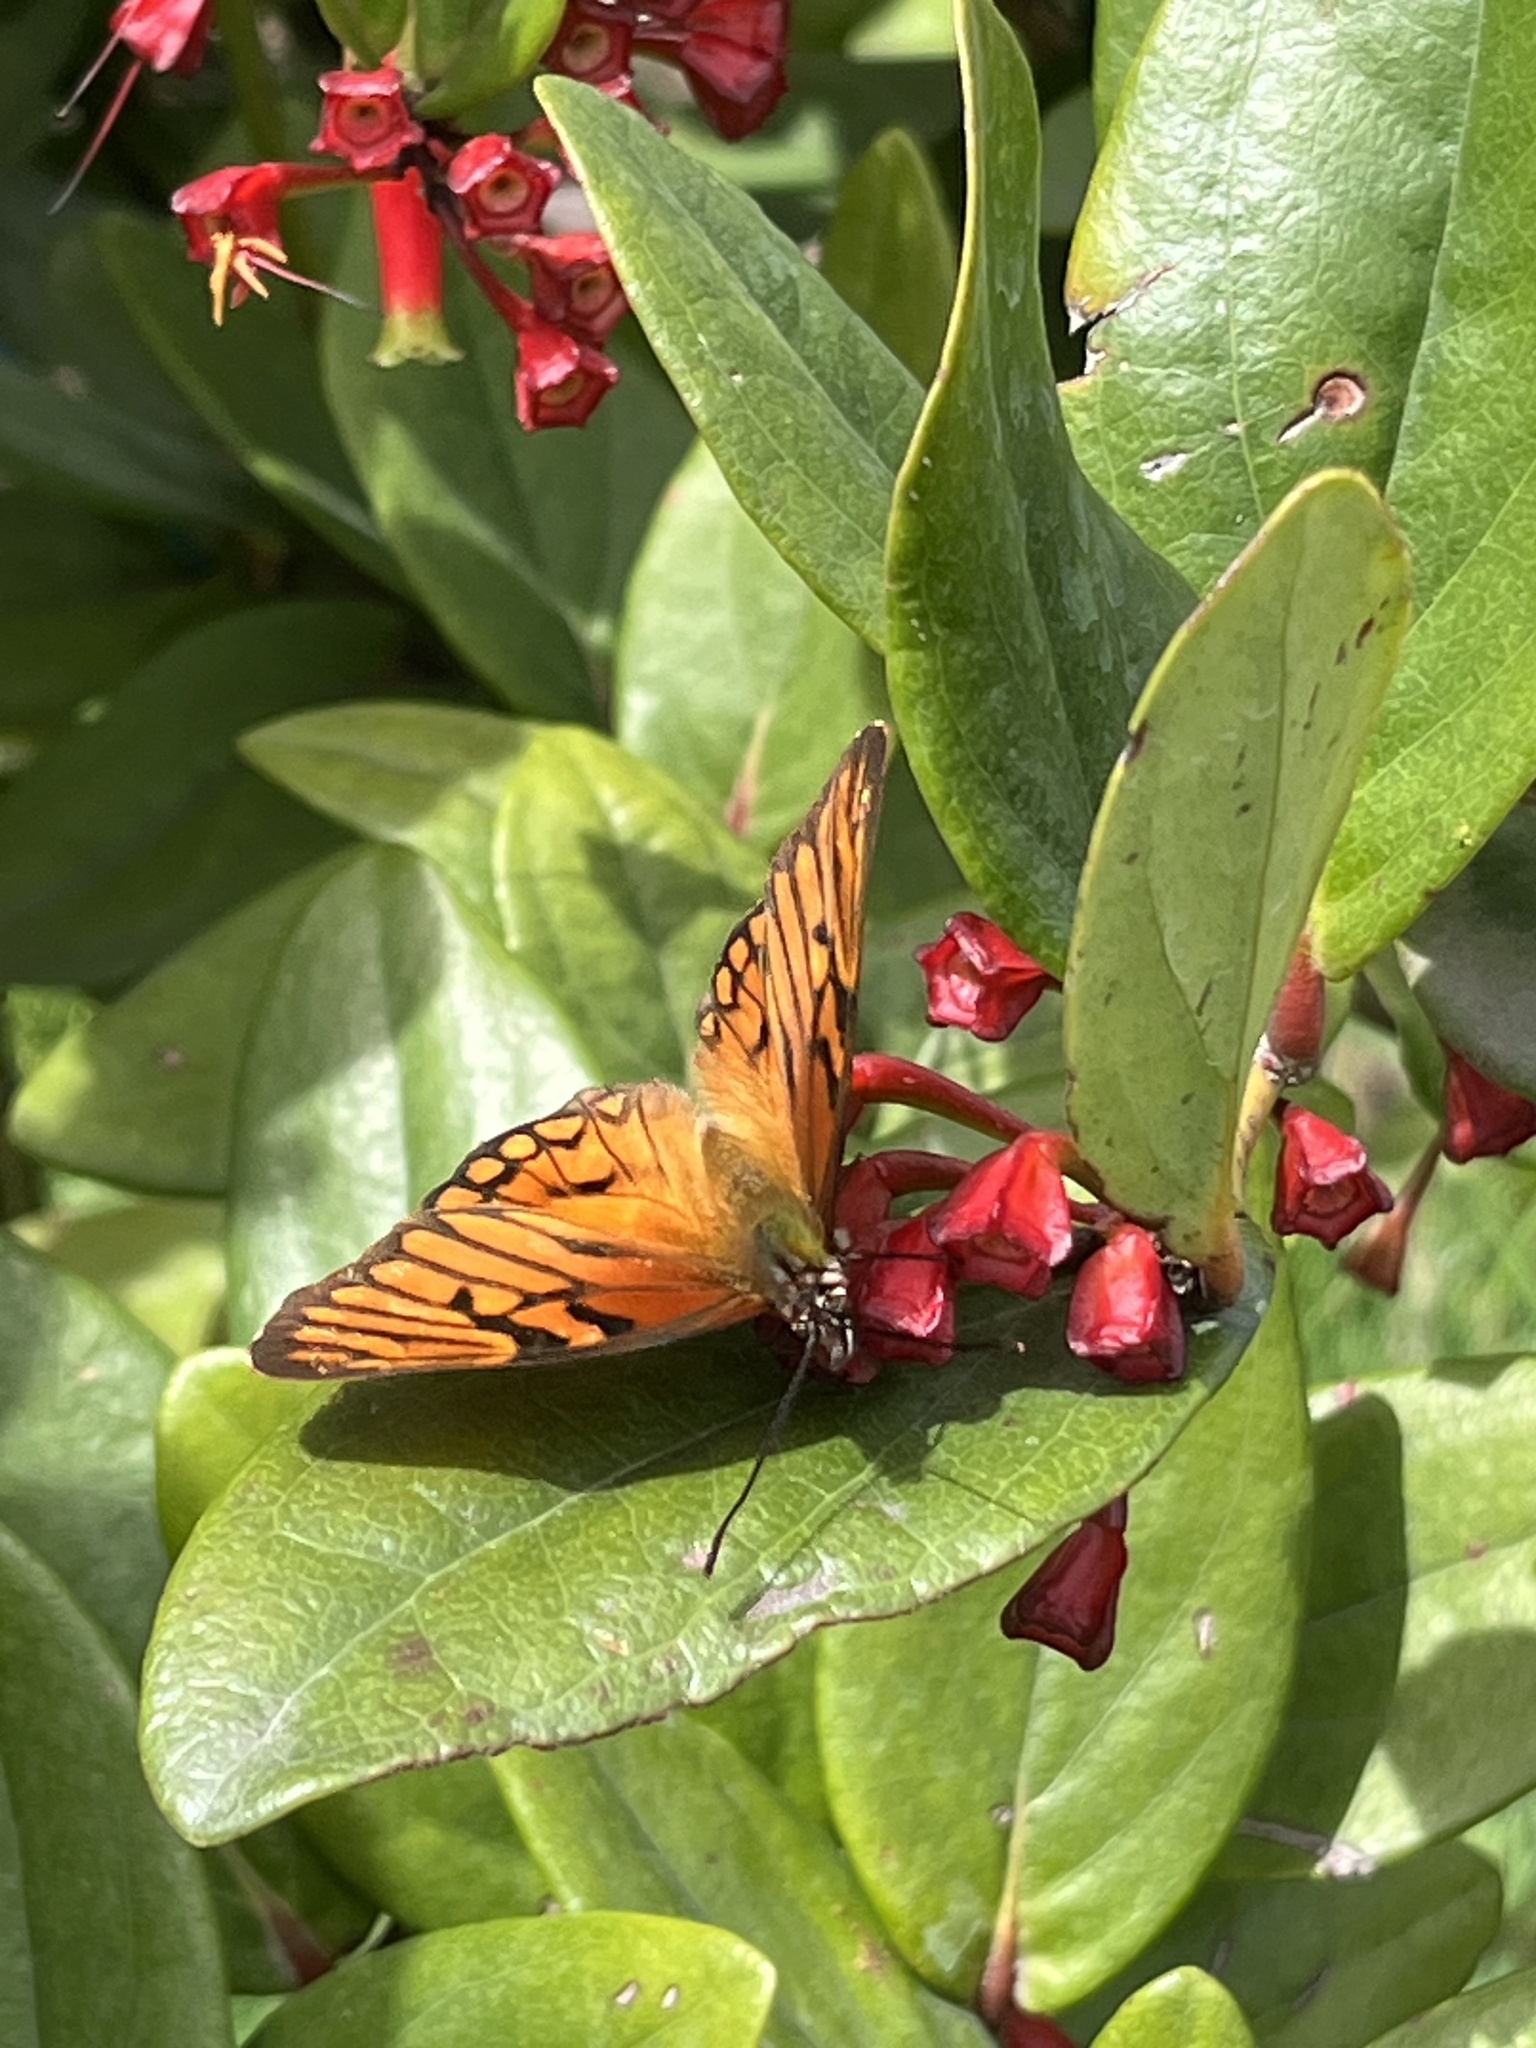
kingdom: Animalia
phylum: Arthropoda
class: Insecta
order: Lepidoptera
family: Nymphalidae
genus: Dione
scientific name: Dione glycera
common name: Andean silverspot
